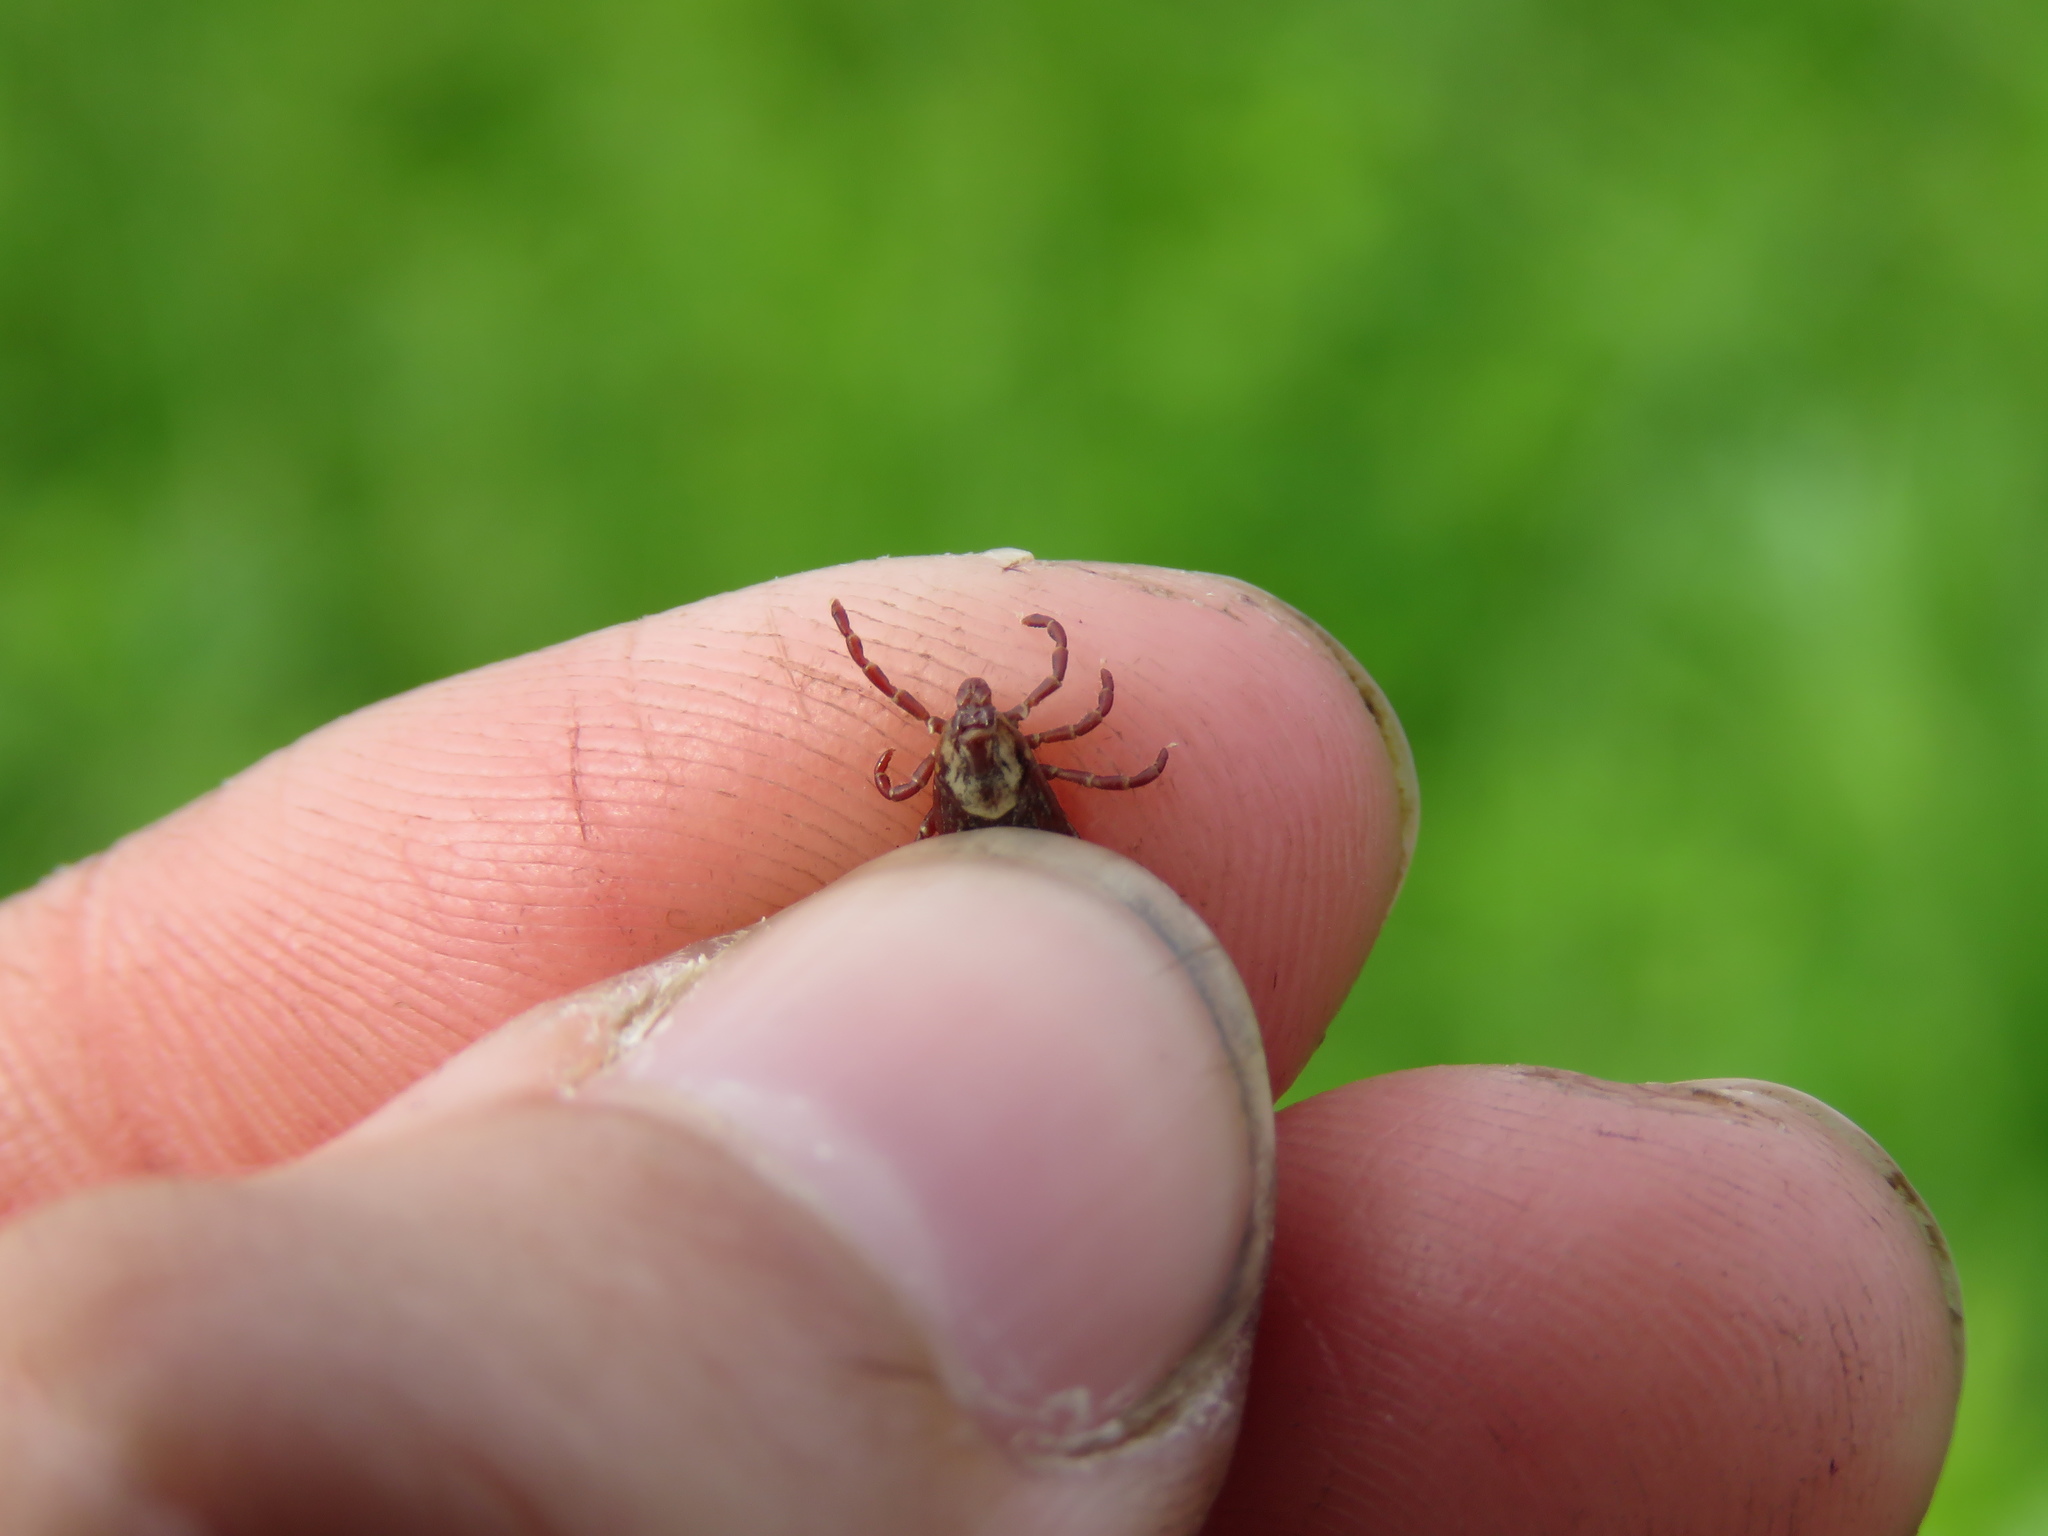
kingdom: Animalia
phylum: Arthropoda
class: Arachnida
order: Ixodida
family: Ixodidae
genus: Dermacentor
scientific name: Dermacentor variabilis
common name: American dog tick
